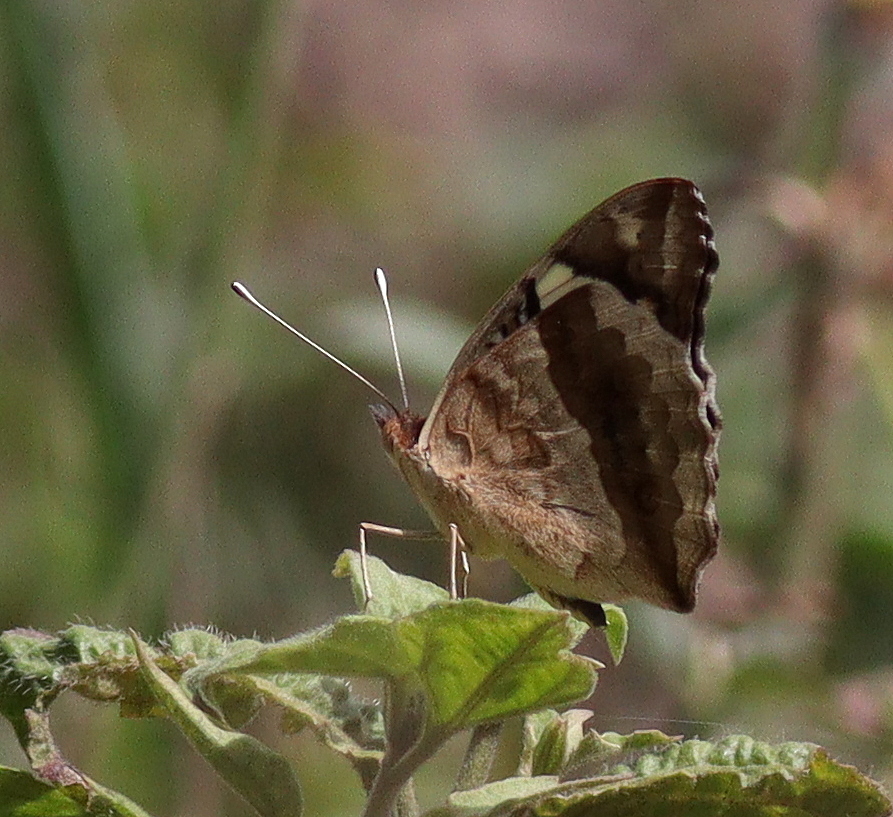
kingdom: Animalia
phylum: Arthropoda
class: Insecta
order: Lepidoptera
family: Nymphalidae
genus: Junonia
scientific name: Junonia oenone
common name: Dark blue pansy
